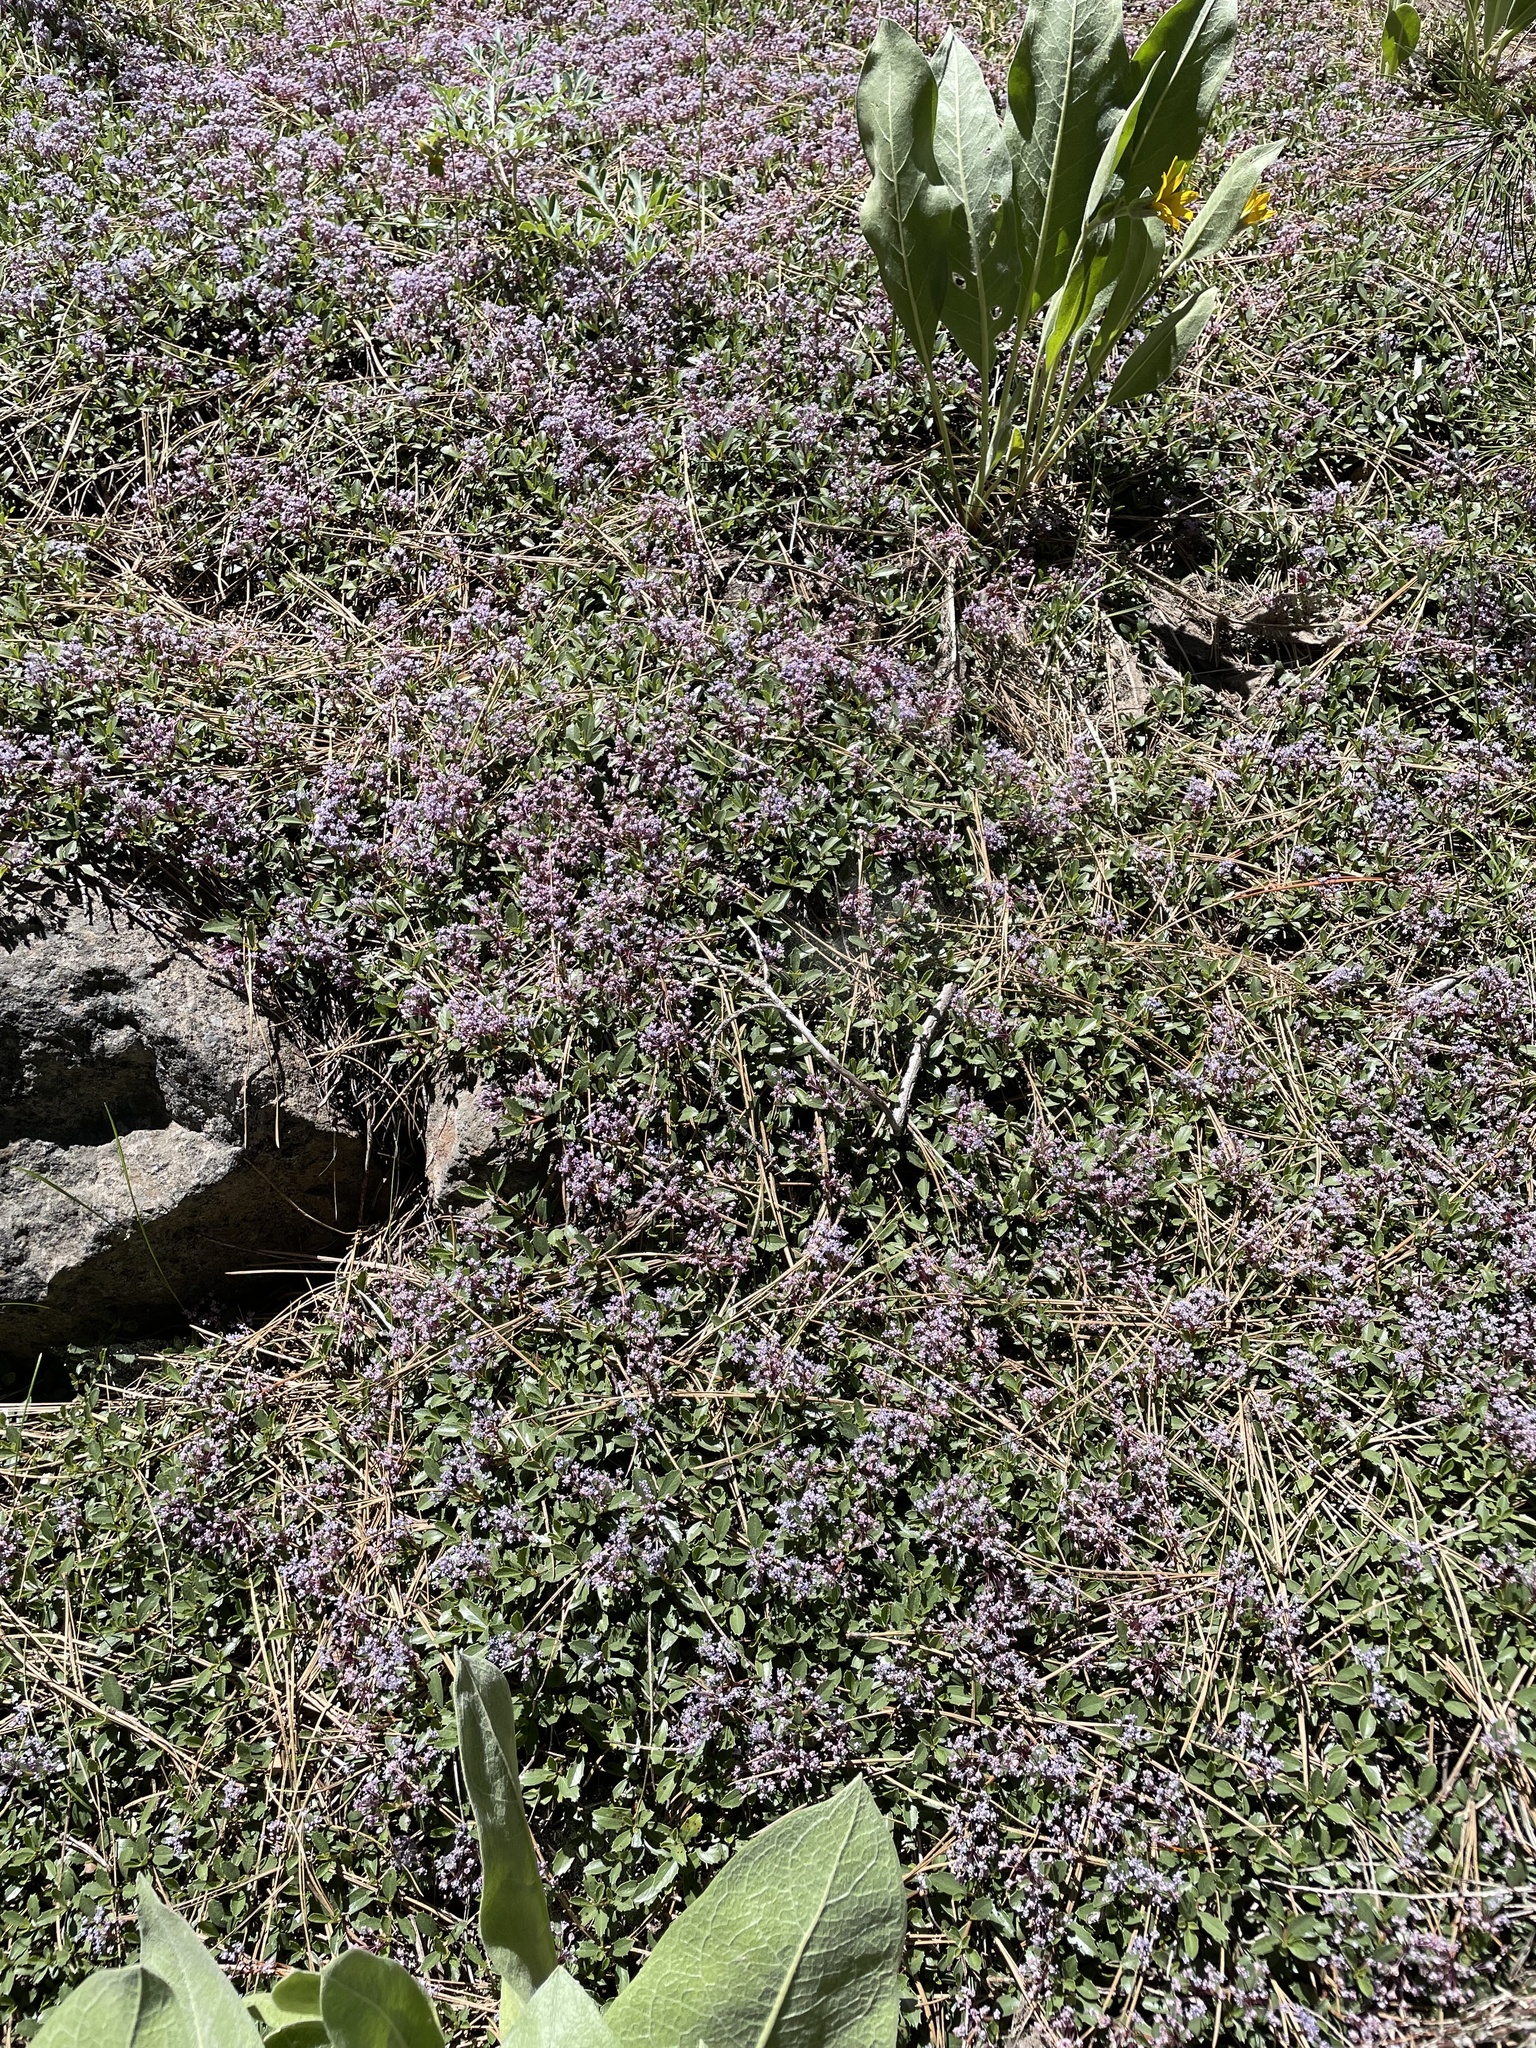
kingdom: Plantae
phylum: Tracheophyta
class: Magnoliopsida
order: Rosales
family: Rhamnaceae
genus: Ceanothus
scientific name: Ceanothus prostratus
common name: Mahala-mat
